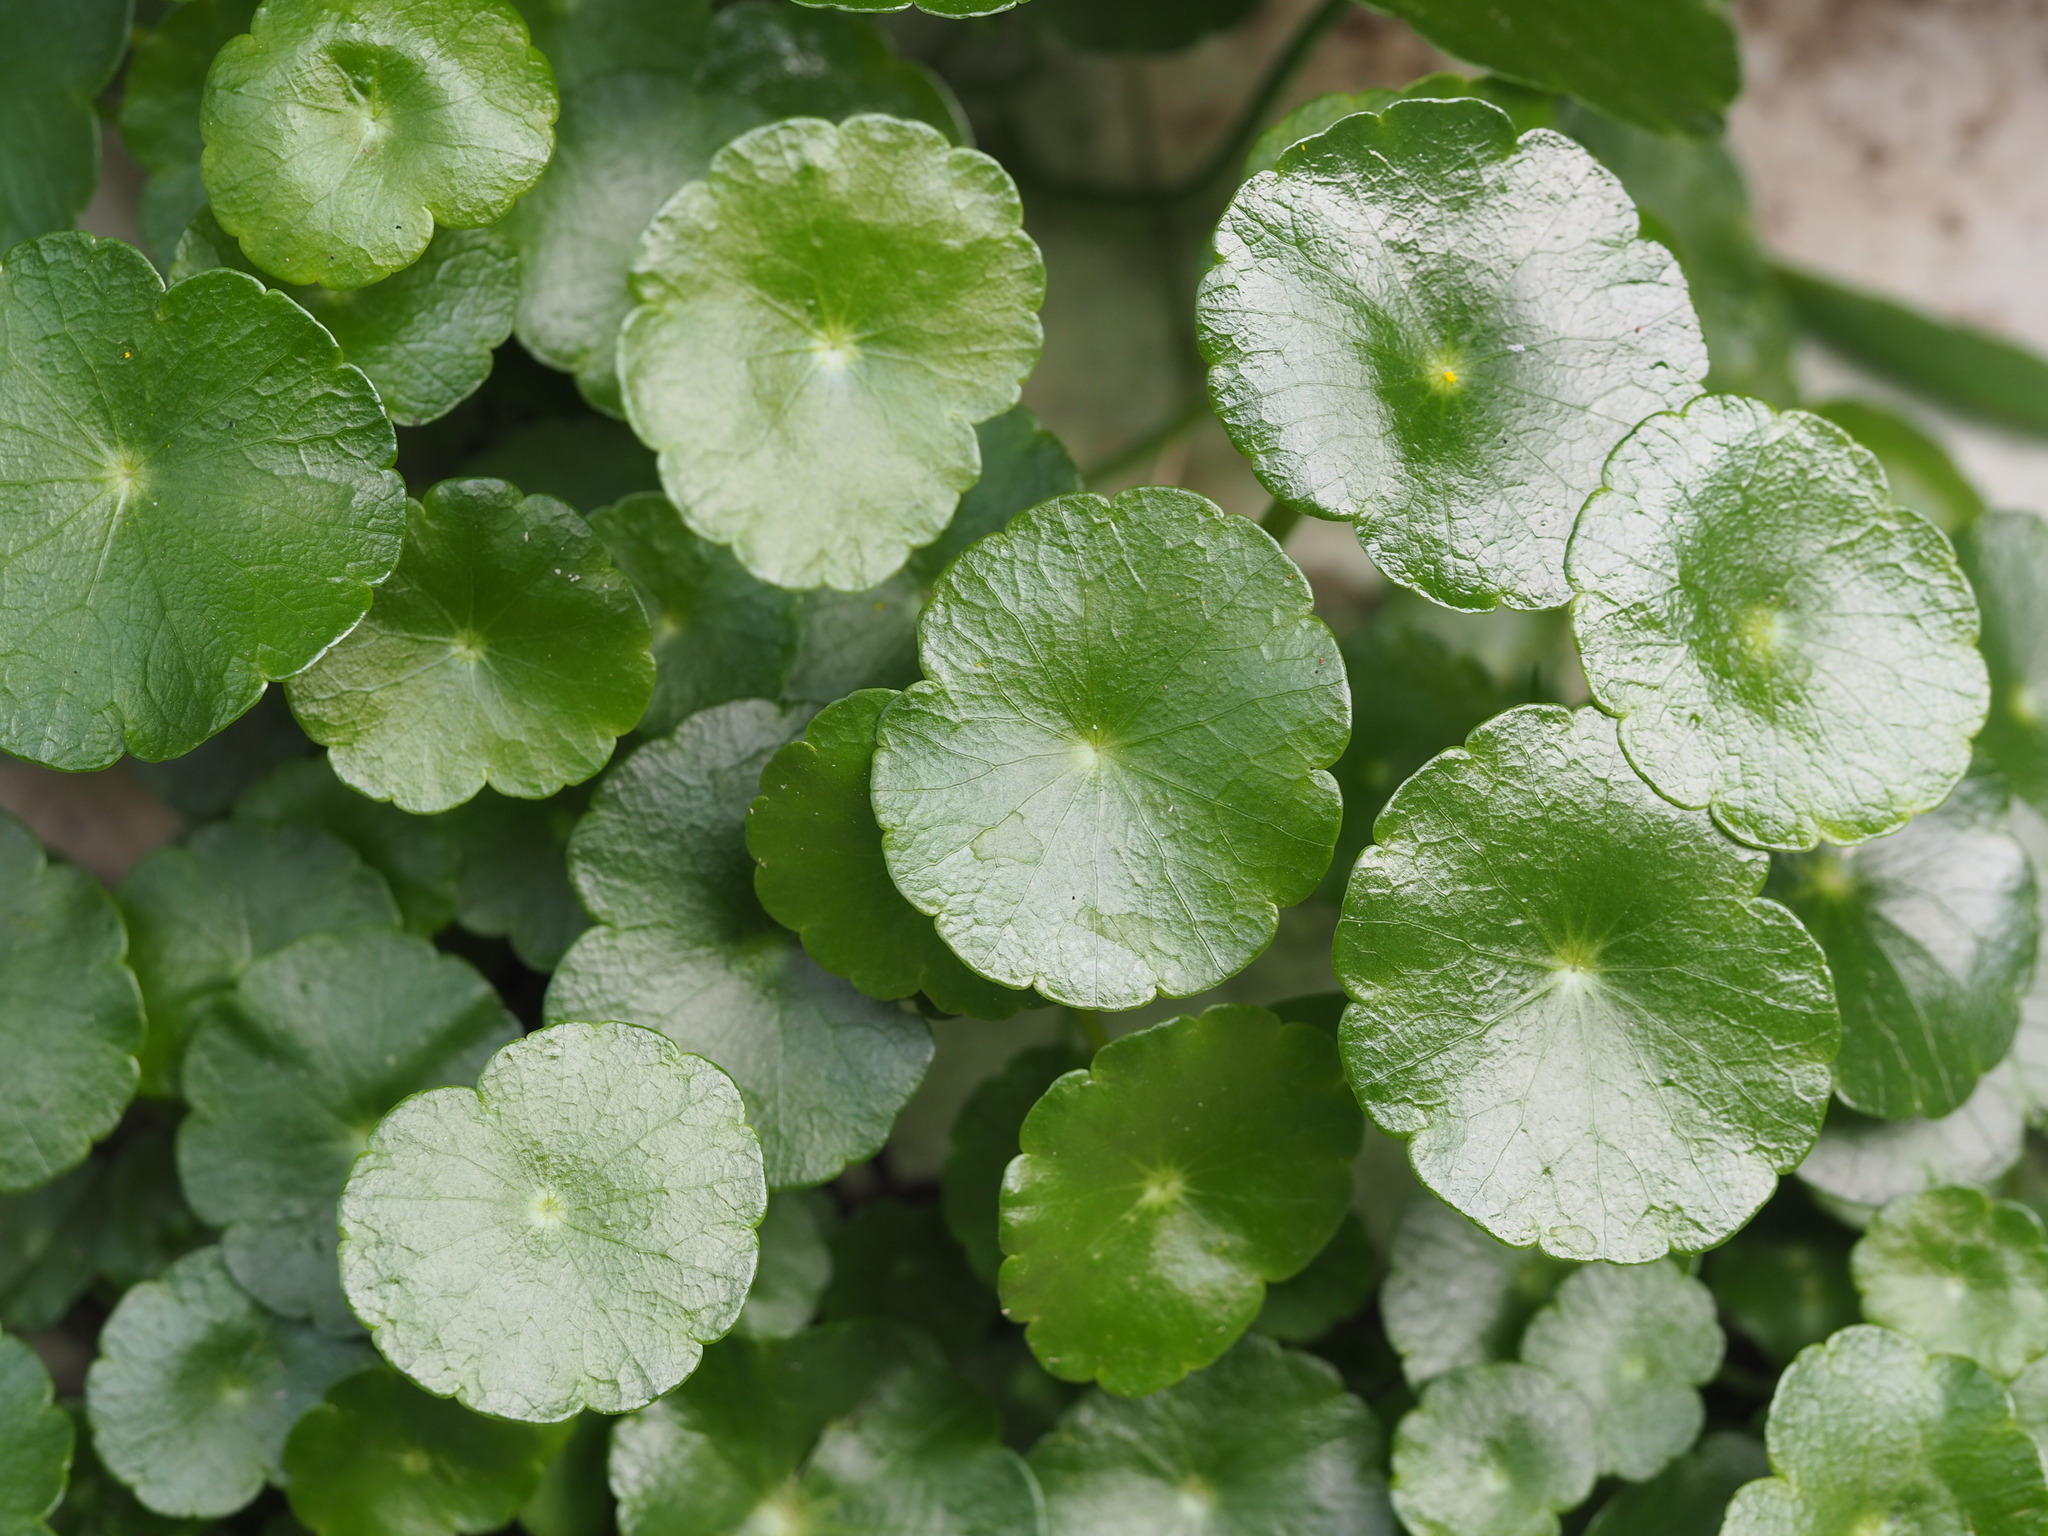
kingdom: Plantae
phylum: Tracheophyta
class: Magnoliopsida
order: Apiales
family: Araliaceae
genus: Hydrocotyle
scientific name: Hydrocotyle verticillata
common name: Whorled marshpennywort
